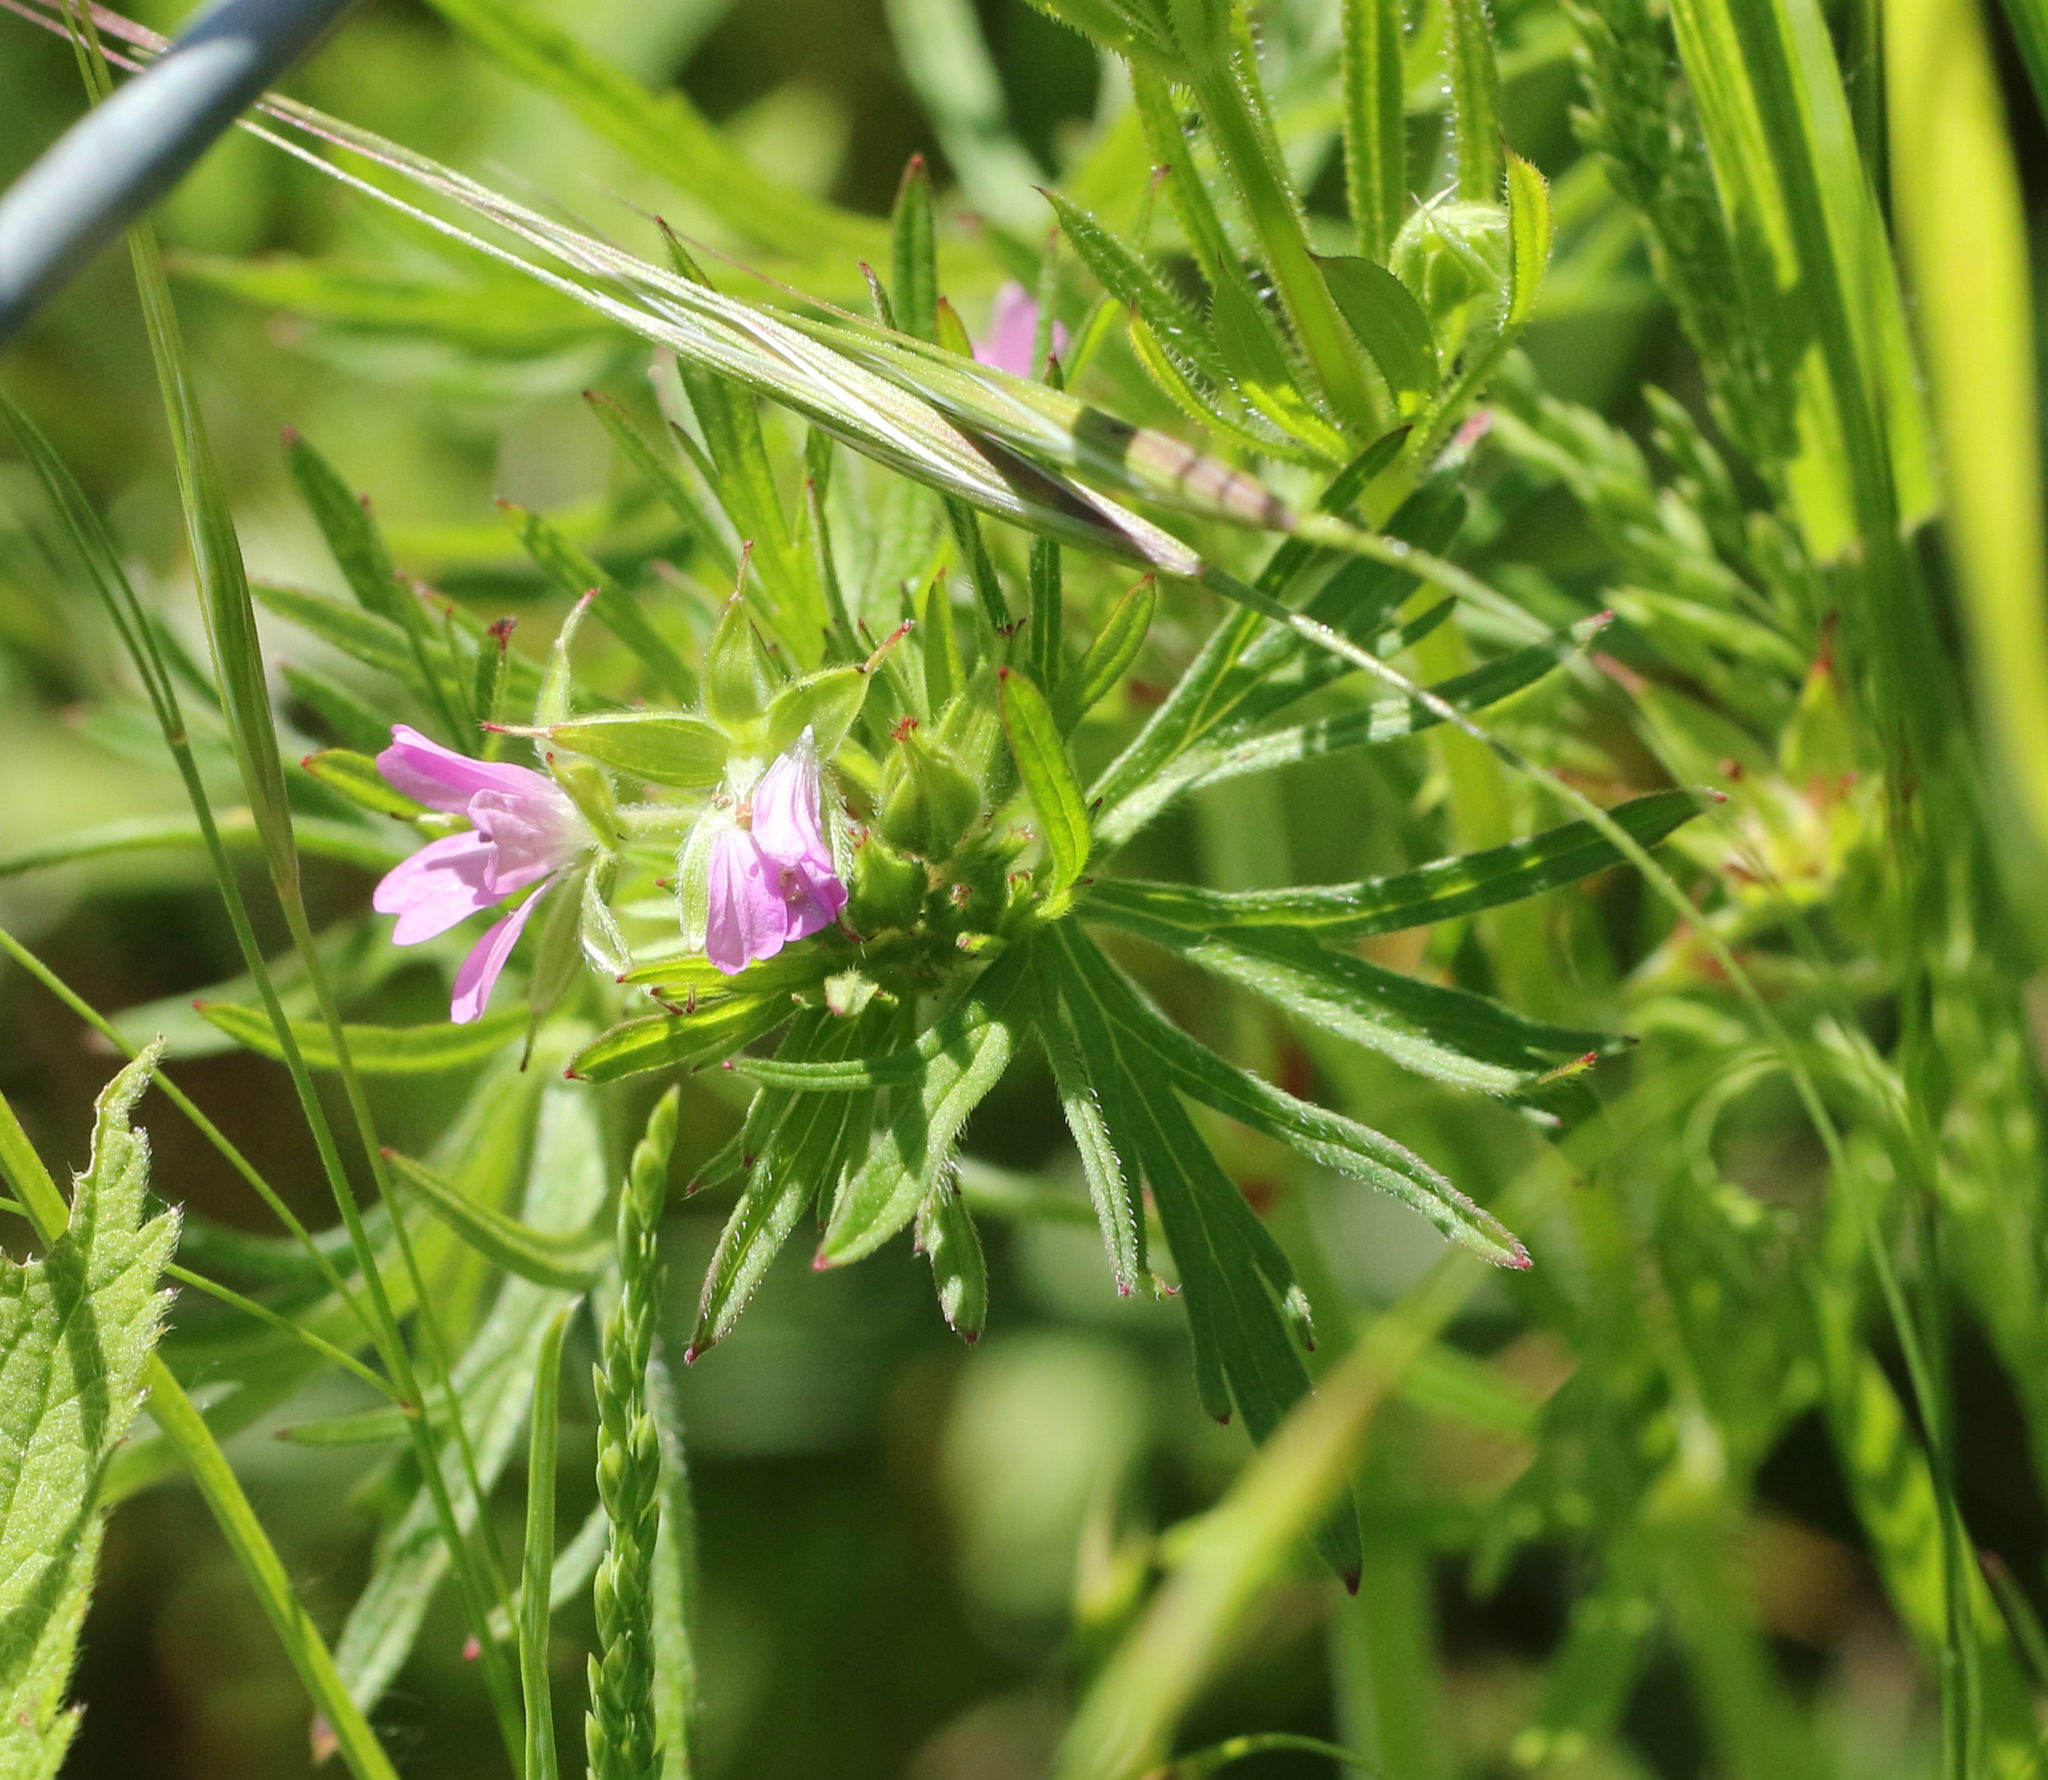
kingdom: Plantae
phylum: Tracheophyta
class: Magnoliopsida
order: Geraniales
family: Geraniaceae
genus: Geranium
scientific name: Geranium dissectum
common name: Cut-leaved crane's-bill
